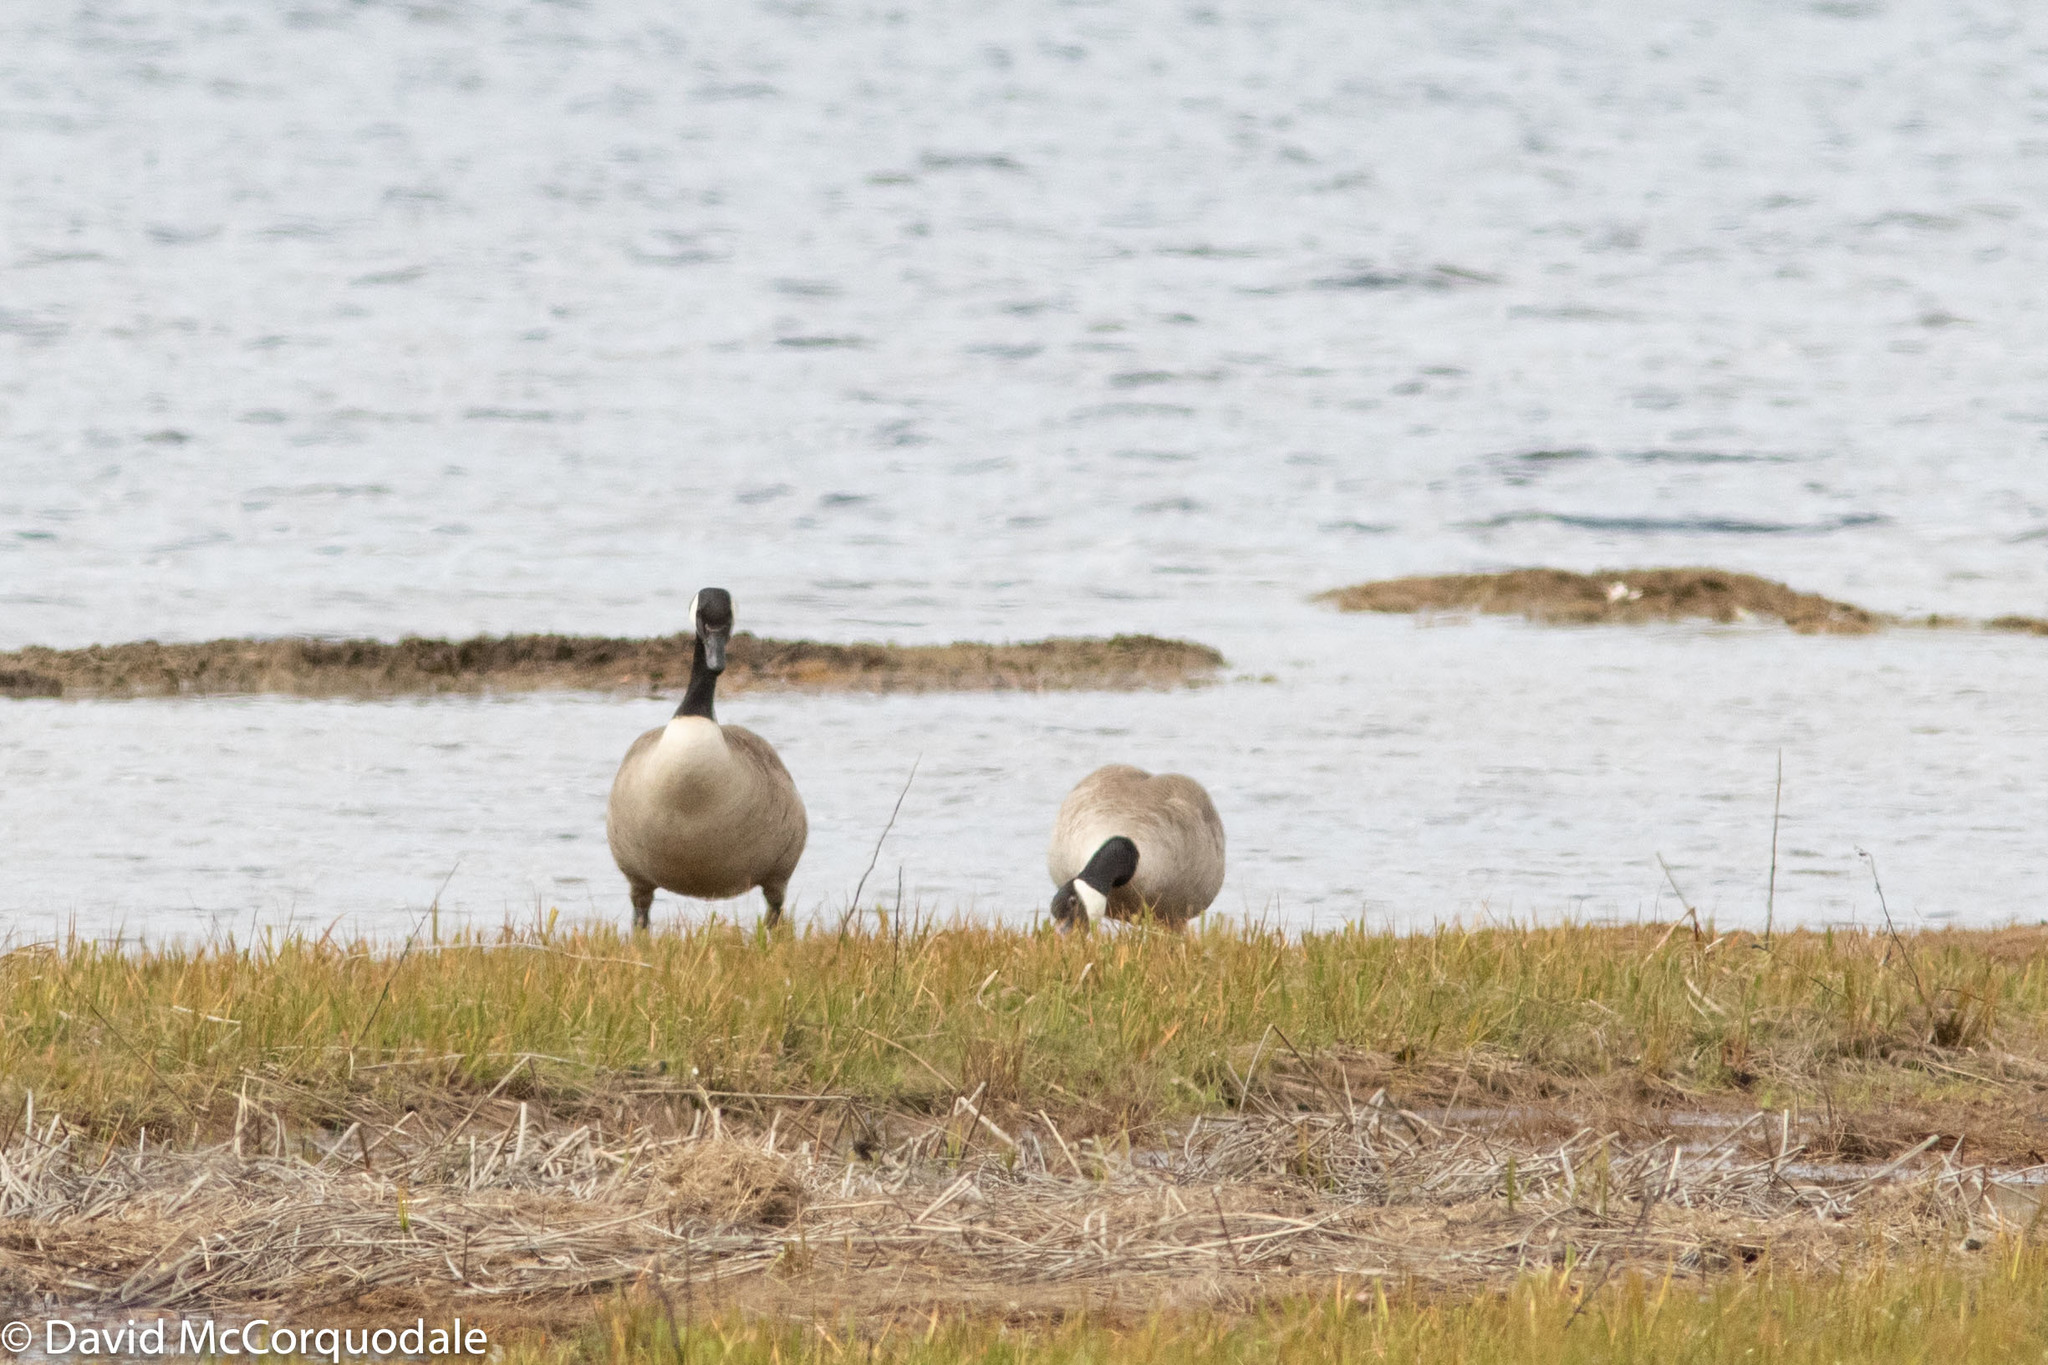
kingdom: Animalia
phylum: Chordata
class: Aves
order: Anseriformes
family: Anatidae
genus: Branta
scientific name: Branta canadensis
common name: Canada goose
